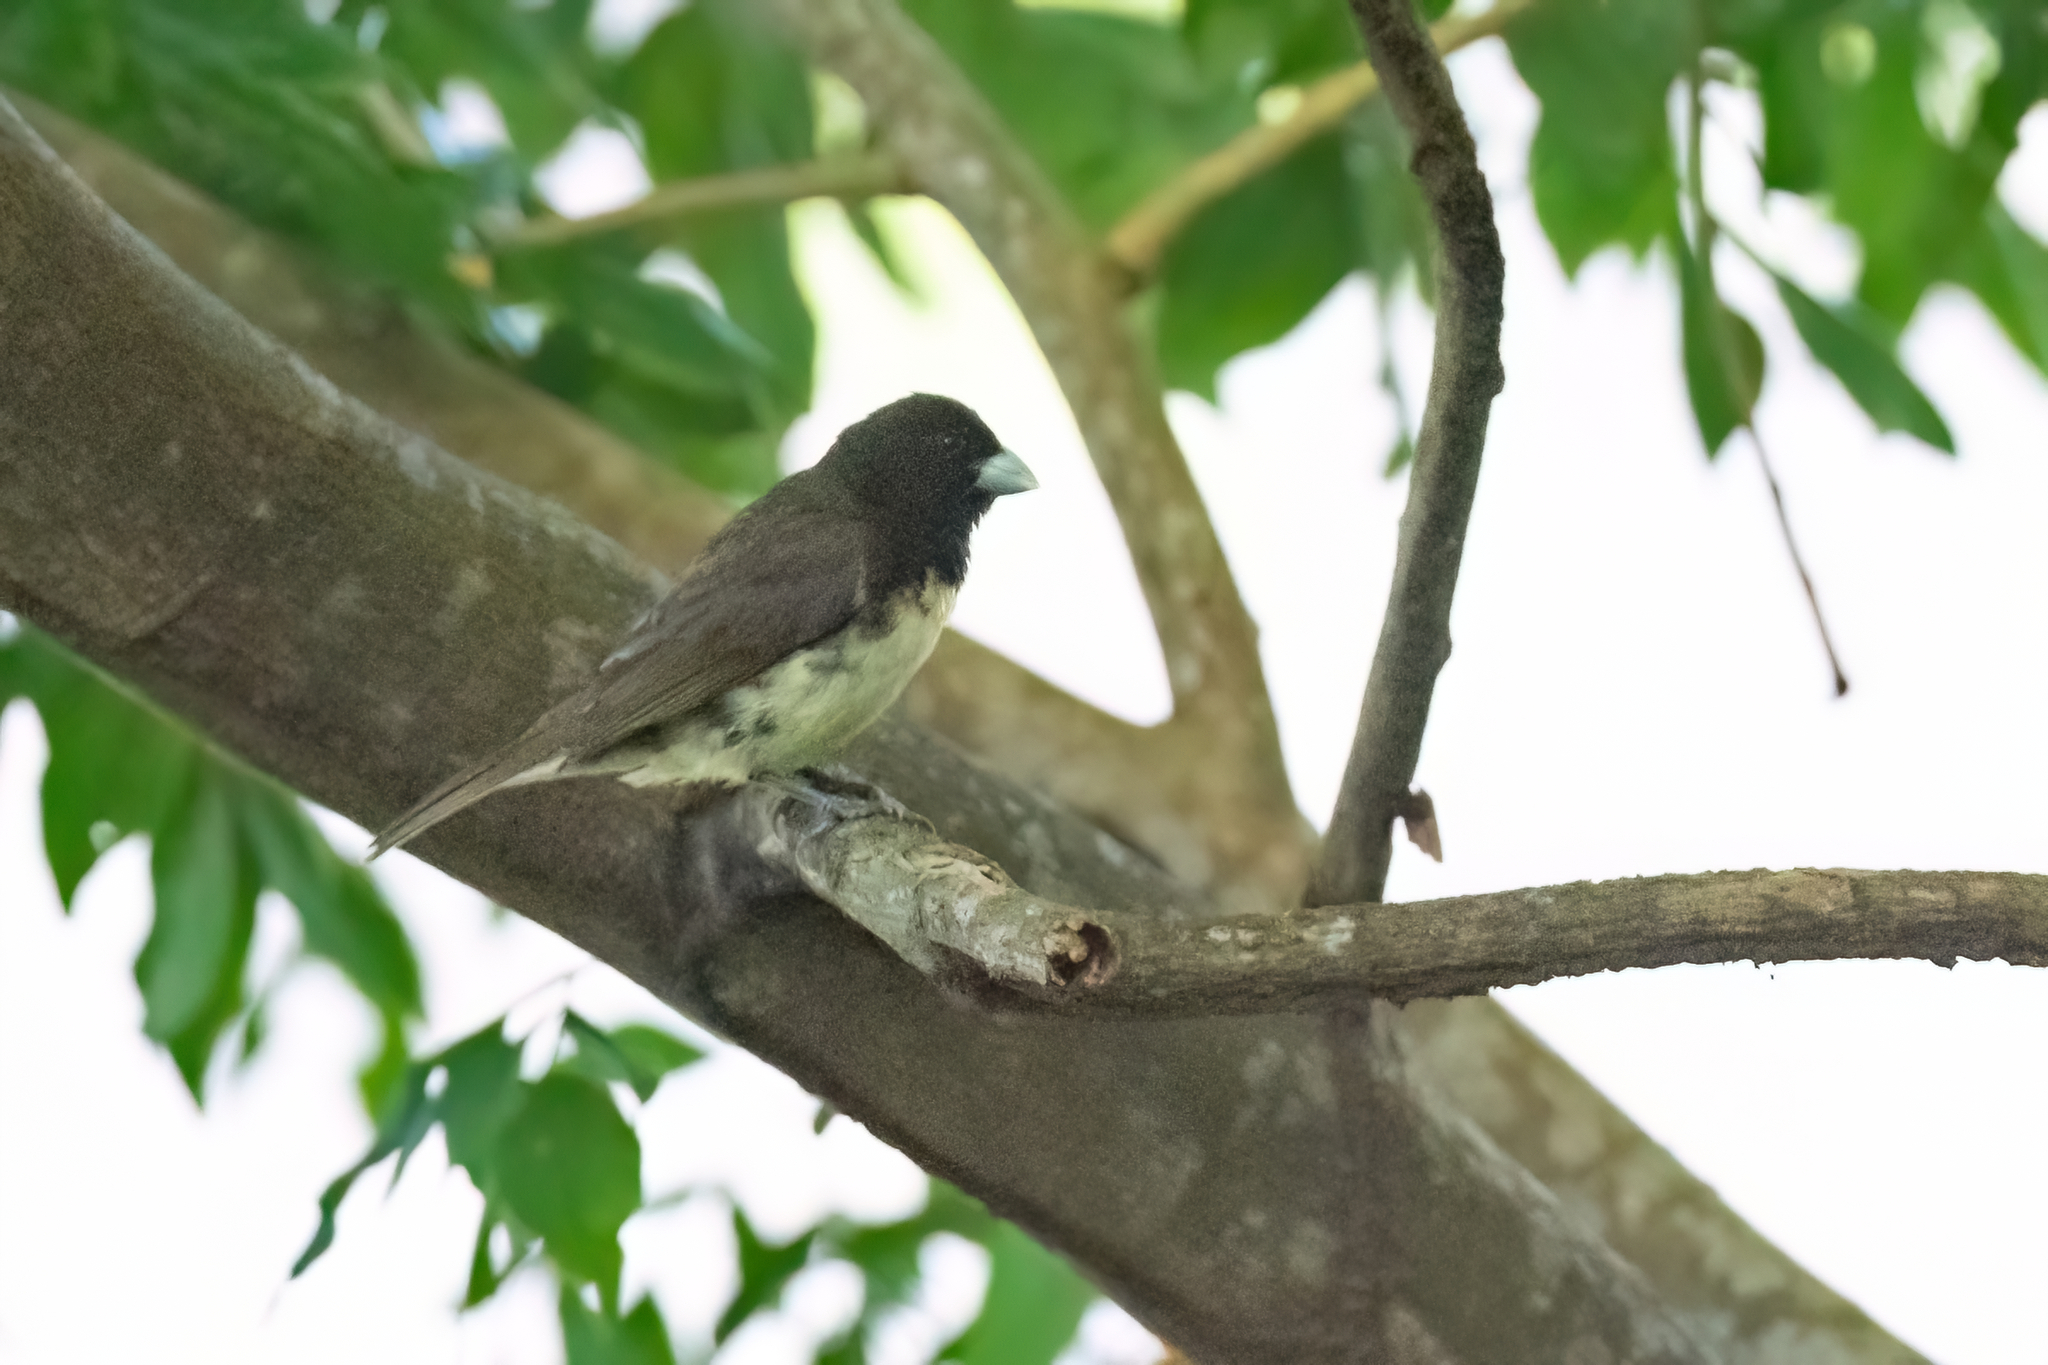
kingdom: Animalia
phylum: Chordata
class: Aves
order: Passeriformes
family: Thraupidae
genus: Sporophila
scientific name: Sporophila nigricollis
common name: Yellow-bellied seedeater
